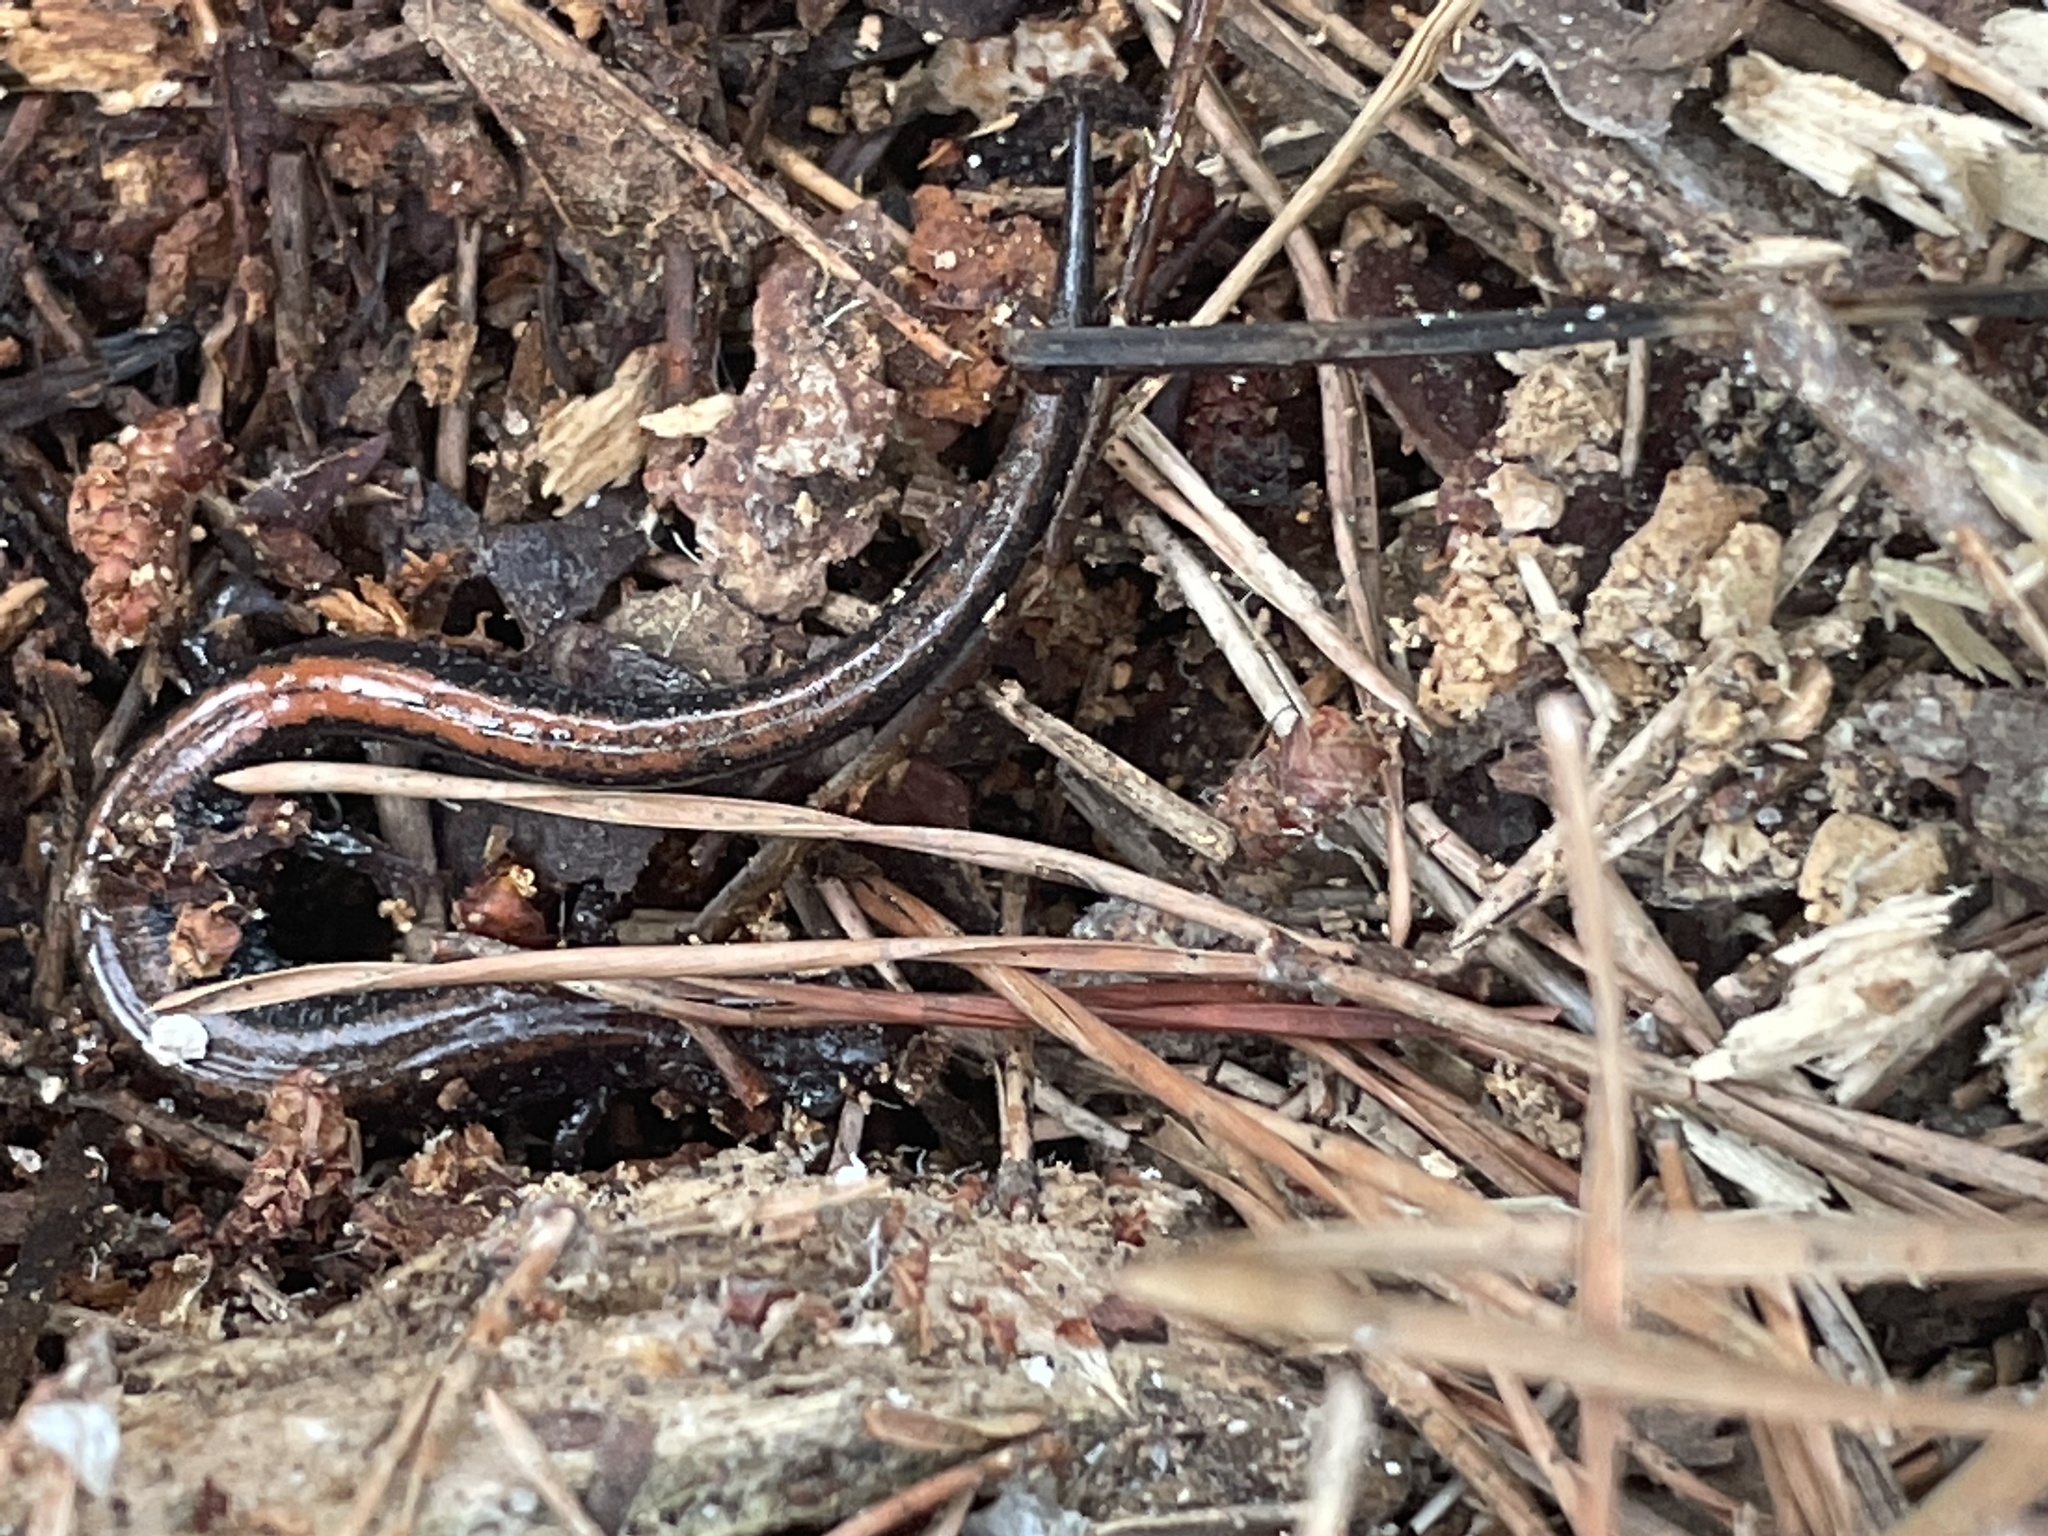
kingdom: Animalia
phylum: Chordata
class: Amphibia
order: Caudata
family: Plethodontidae
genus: Plethodon
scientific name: Plethodon cinereus
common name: Redback salamander
